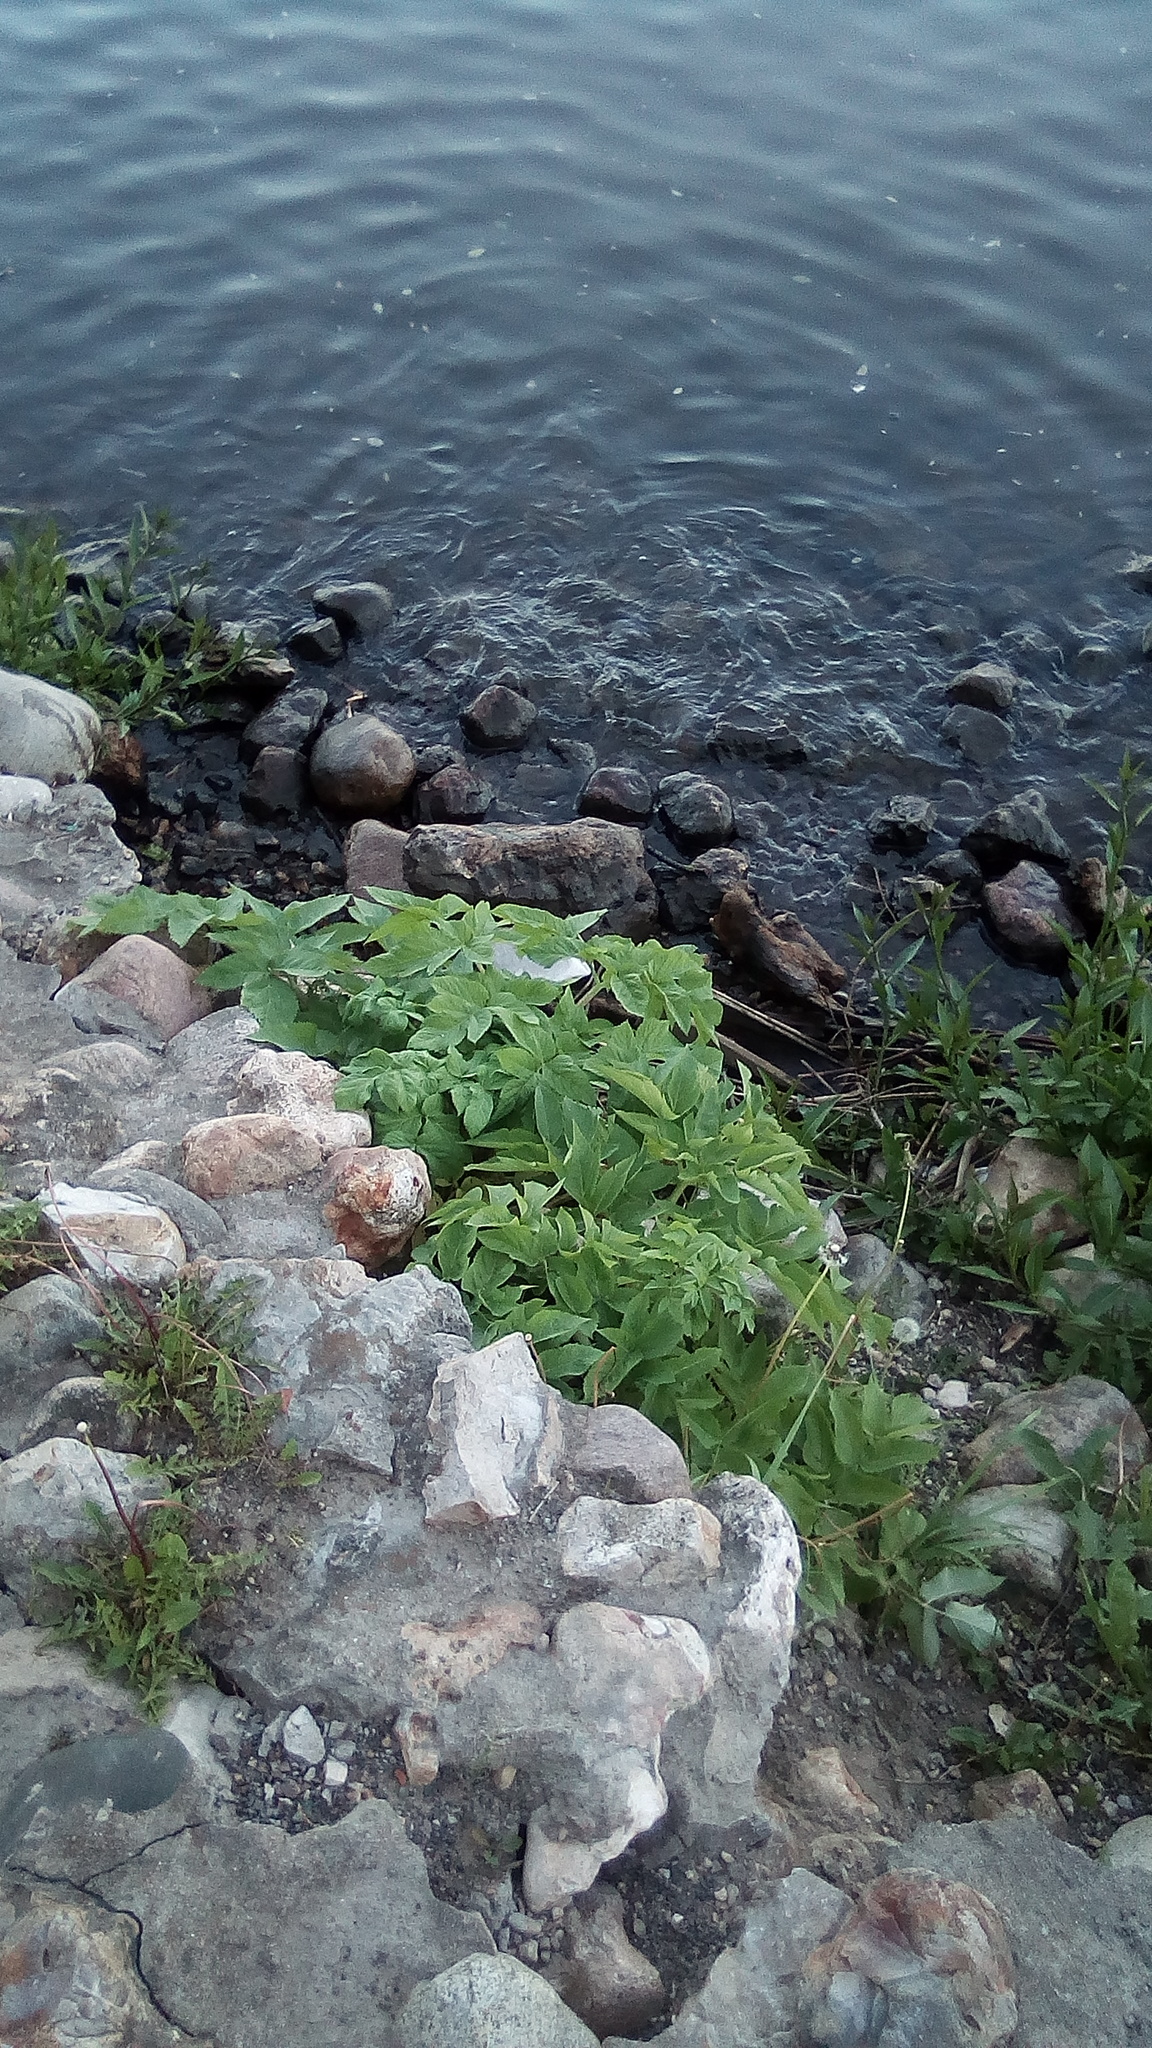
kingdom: Plantae
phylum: Tracheophyta
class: Magnoliopsida
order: Apiales
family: Apiaceae
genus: Angelica
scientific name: Angelica archangelica
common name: Garden angelica
